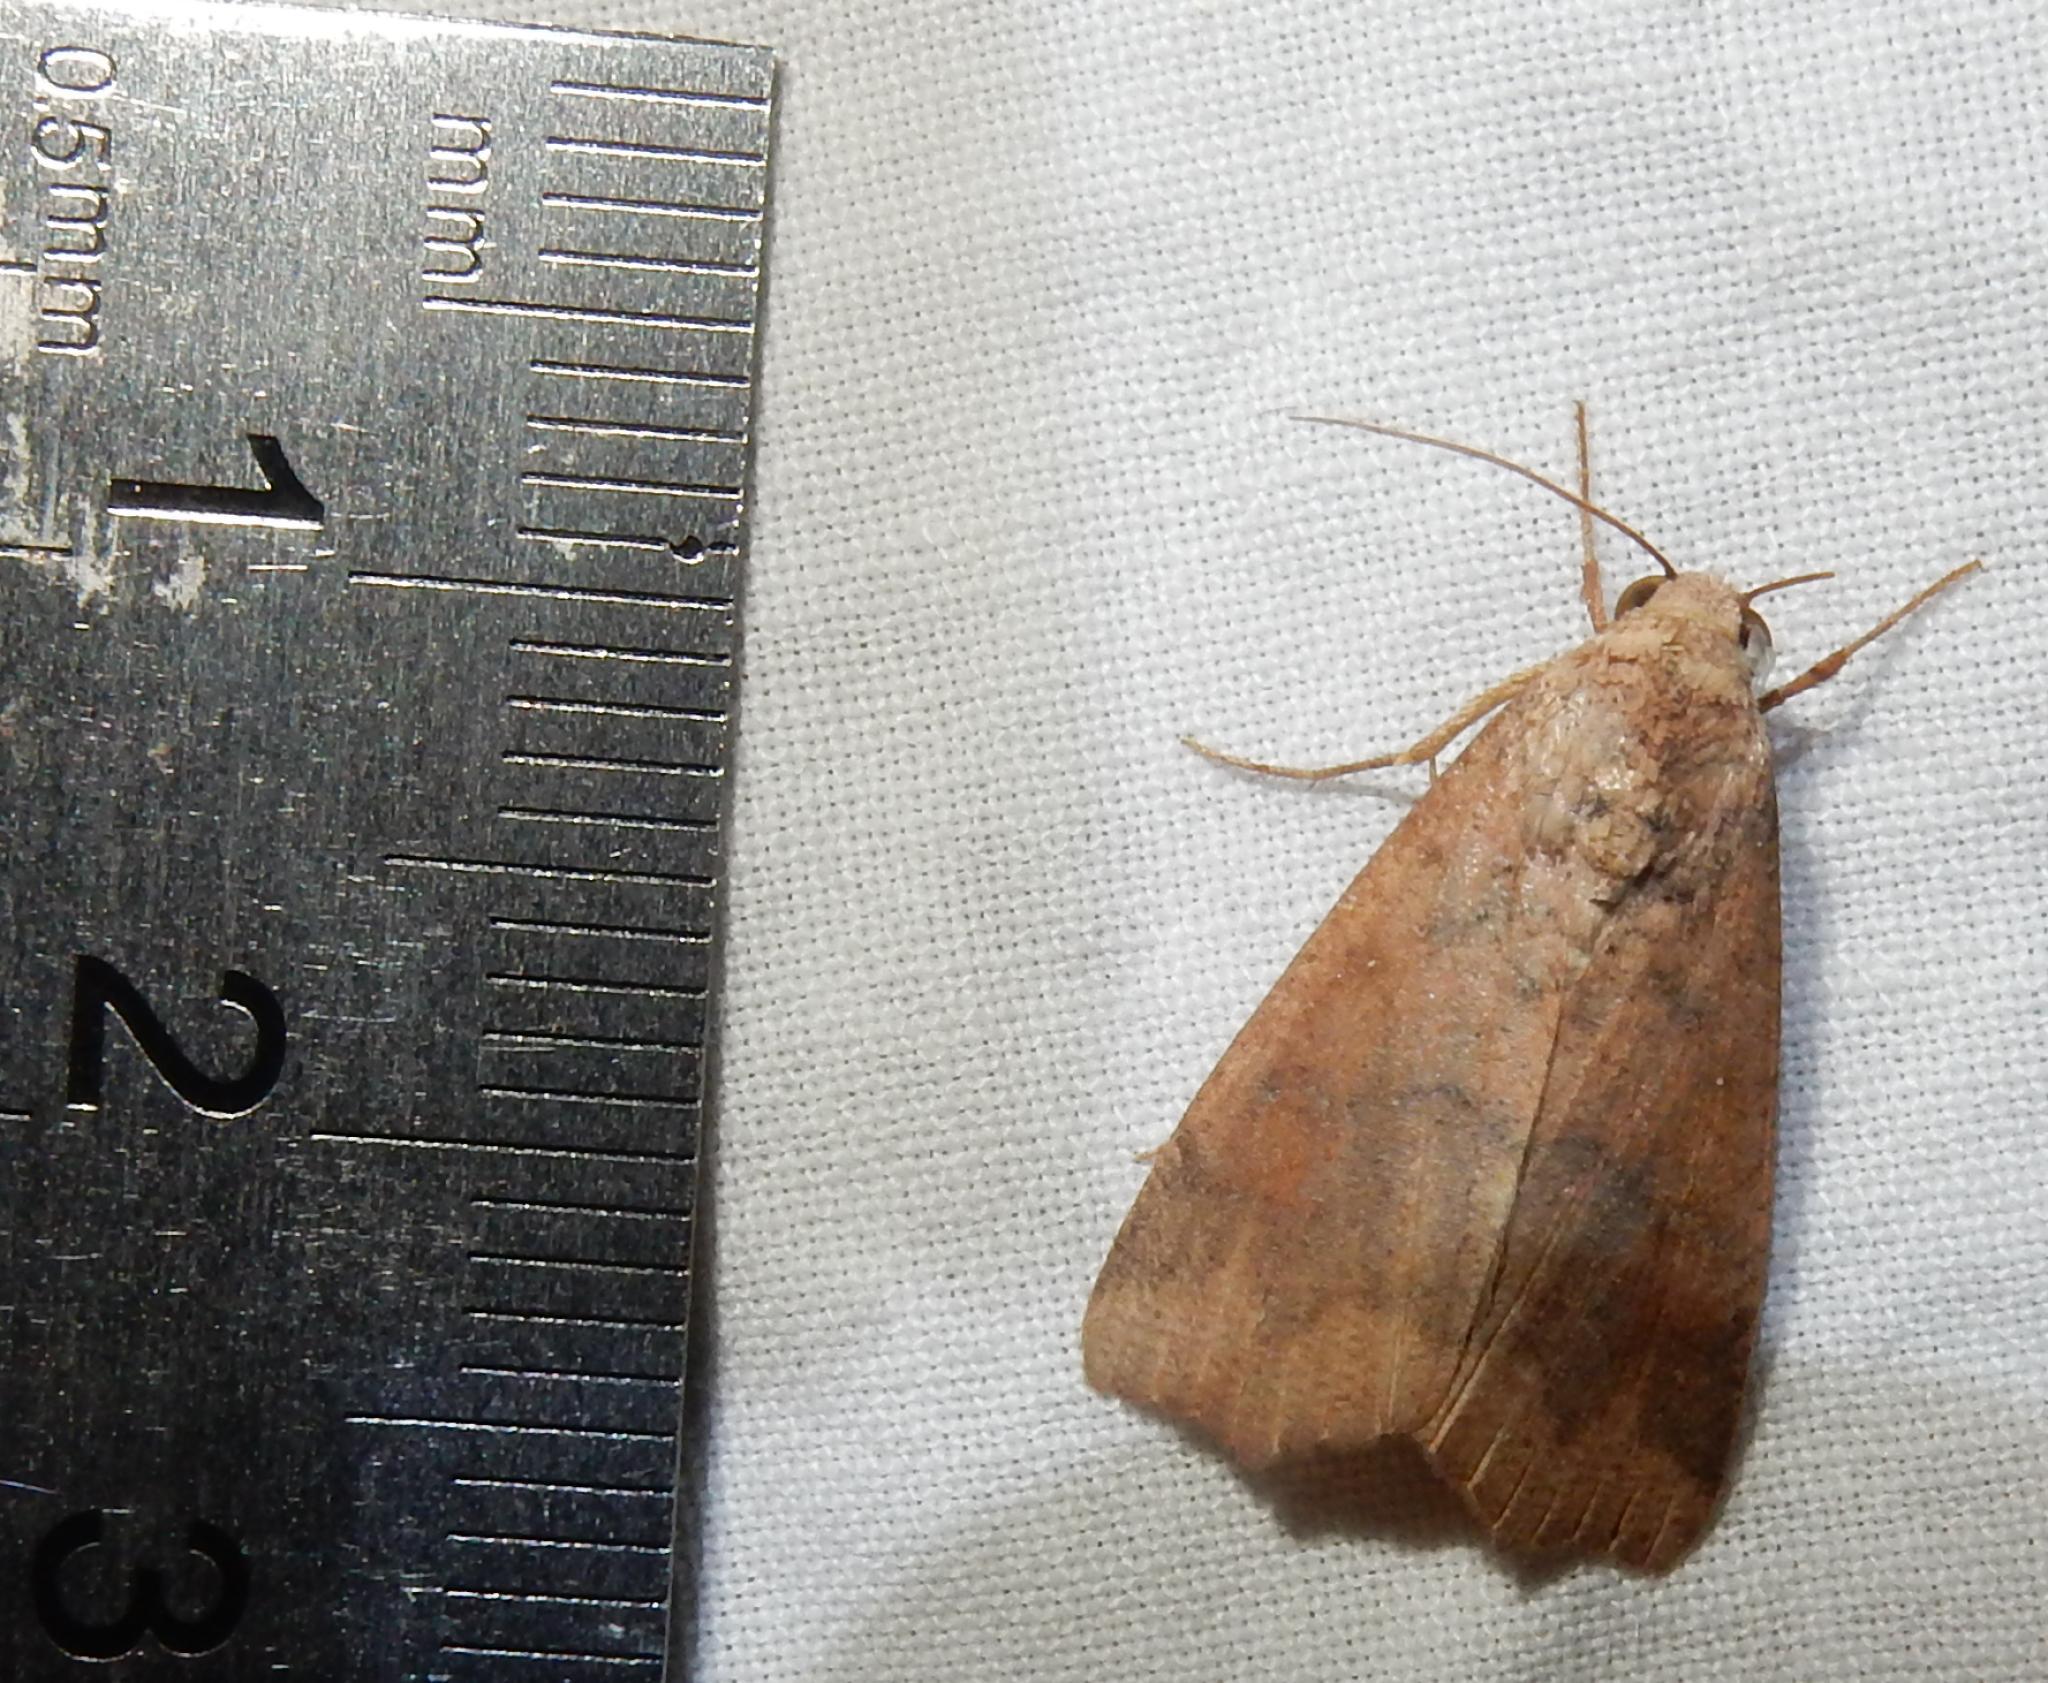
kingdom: Animalia
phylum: Arthropoda
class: Insecta
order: Lepidoptera
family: Erebidae
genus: Anomis
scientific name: Anomis sabulifera
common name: Angled gem
